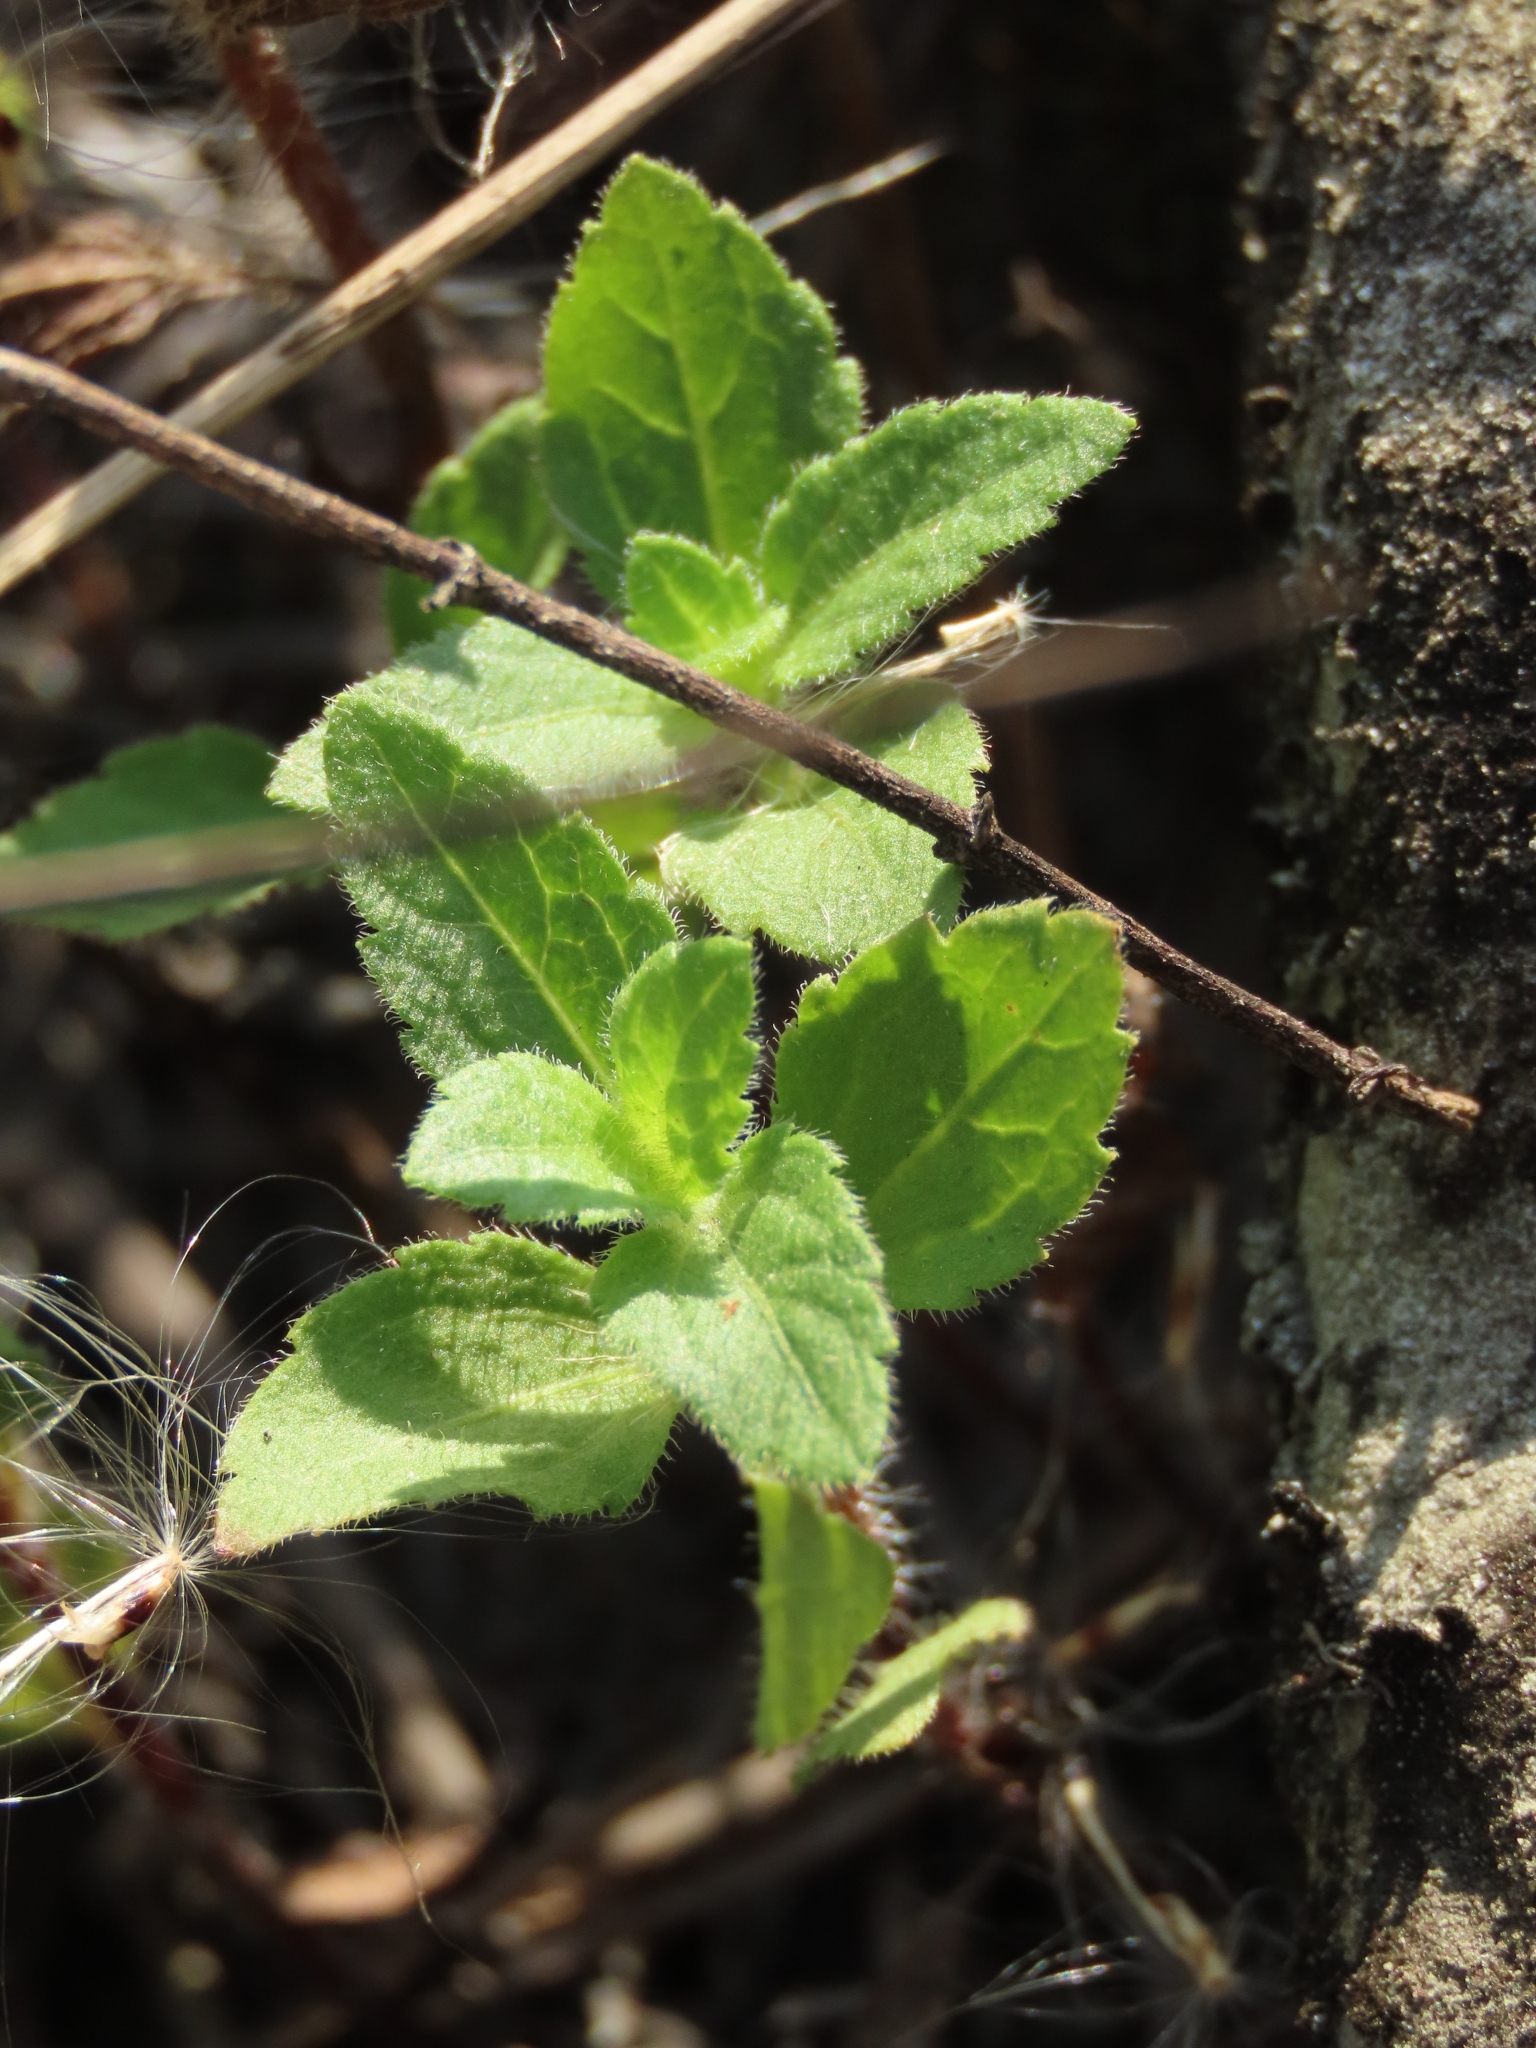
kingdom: Plantae
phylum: Tracheophyta
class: Magnoliopsida
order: Asterales
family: Asteraceae
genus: Praxelis
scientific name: Praxelis clematidea
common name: Praxelis
